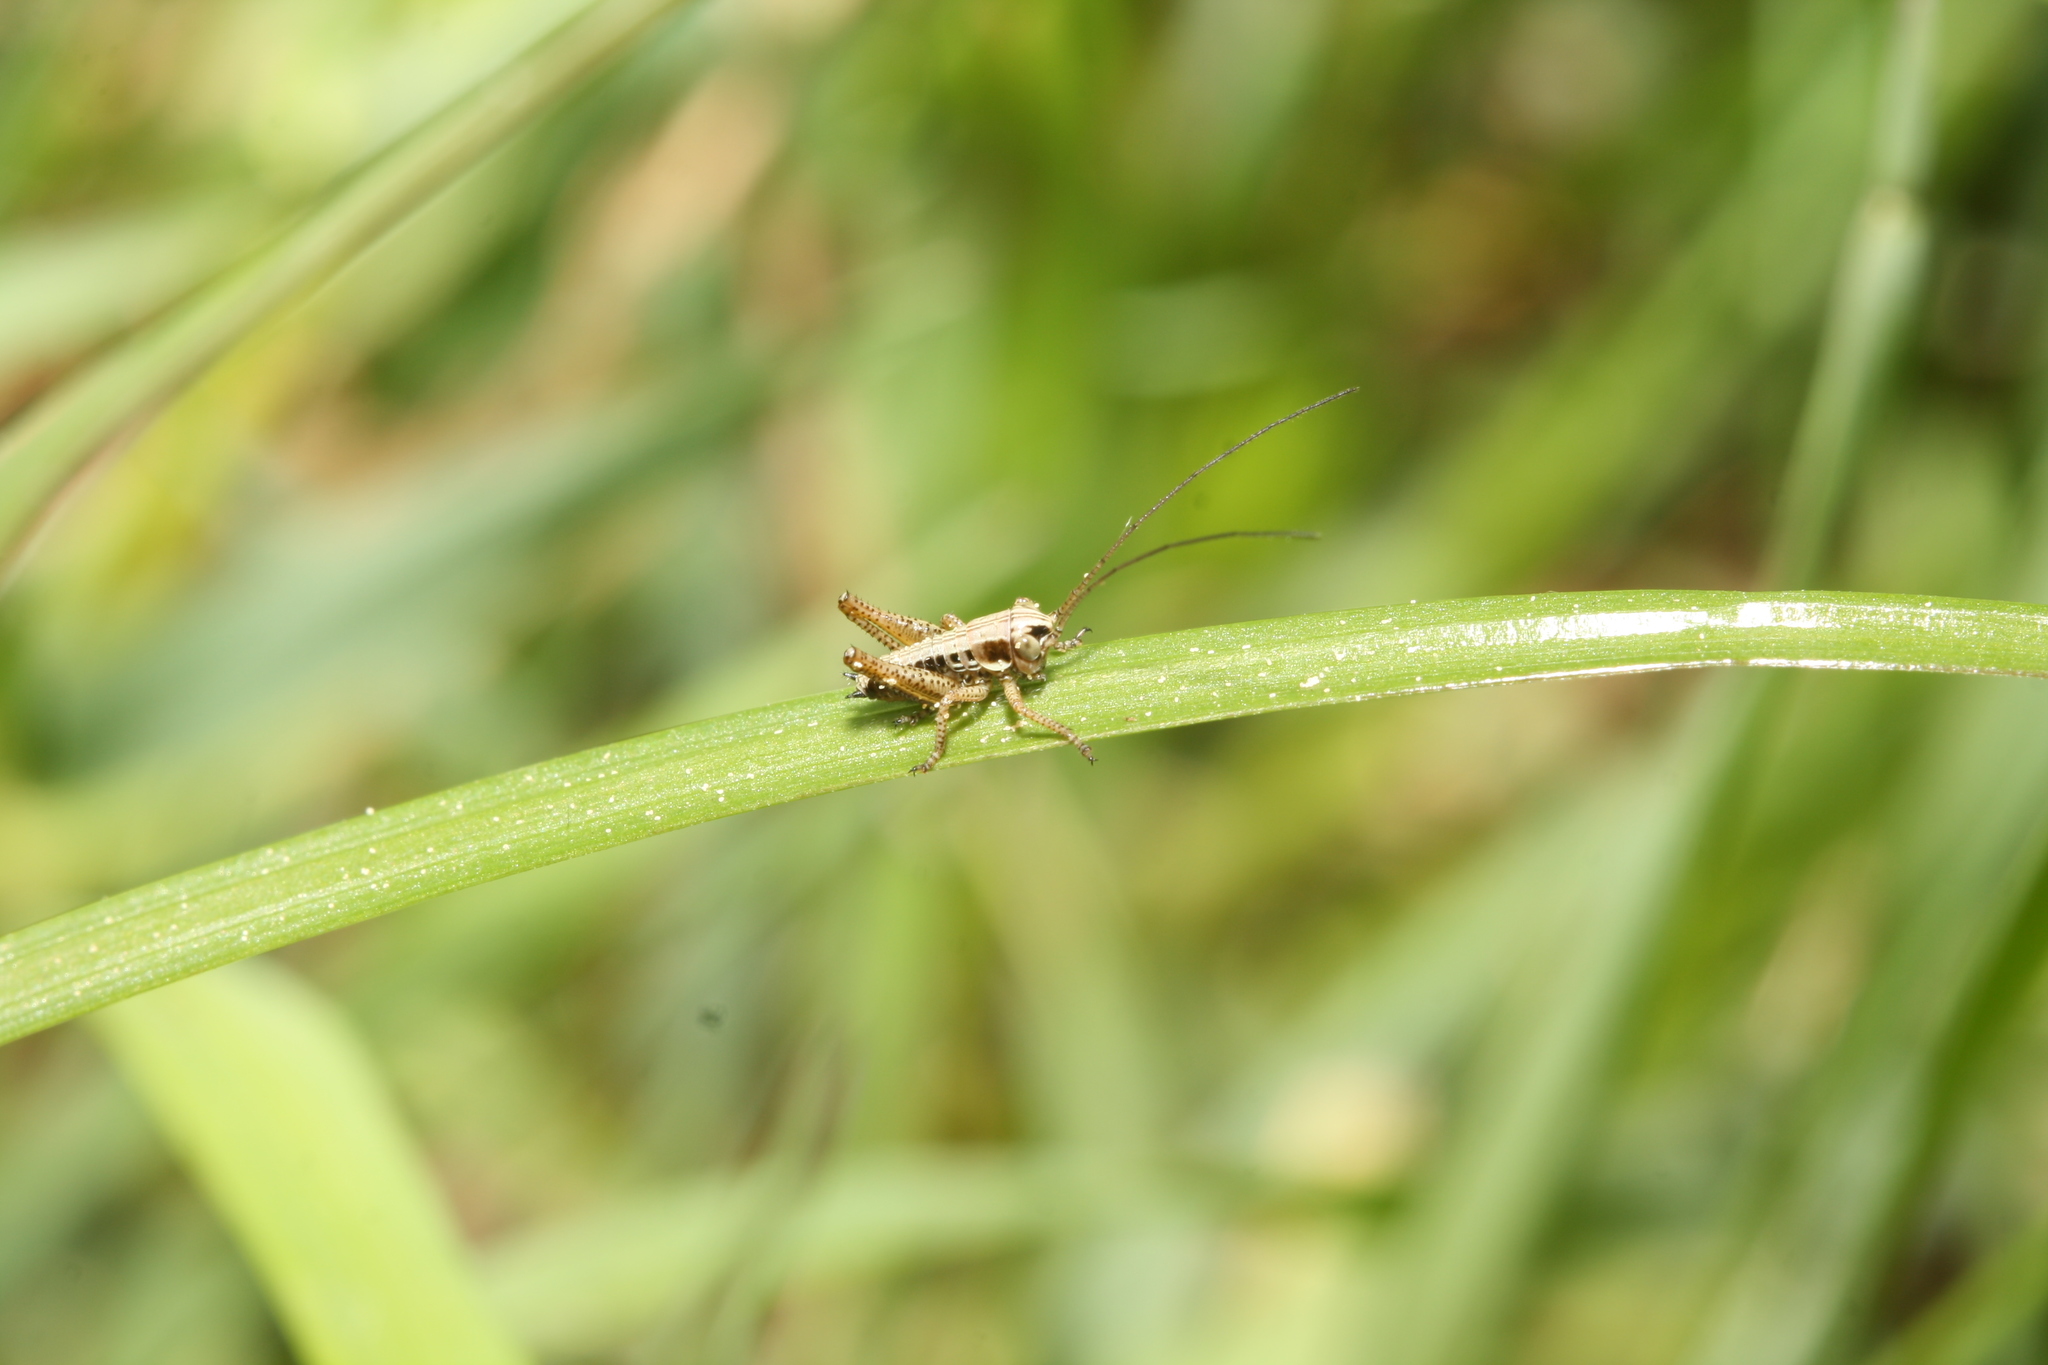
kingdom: Animalia
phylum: Arthropoda
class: Insecta
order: Orthoptera
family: Tettigoniidae
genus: Roeseliana
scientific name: Roeseliana roeselii
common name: Roesel's bush cricket
